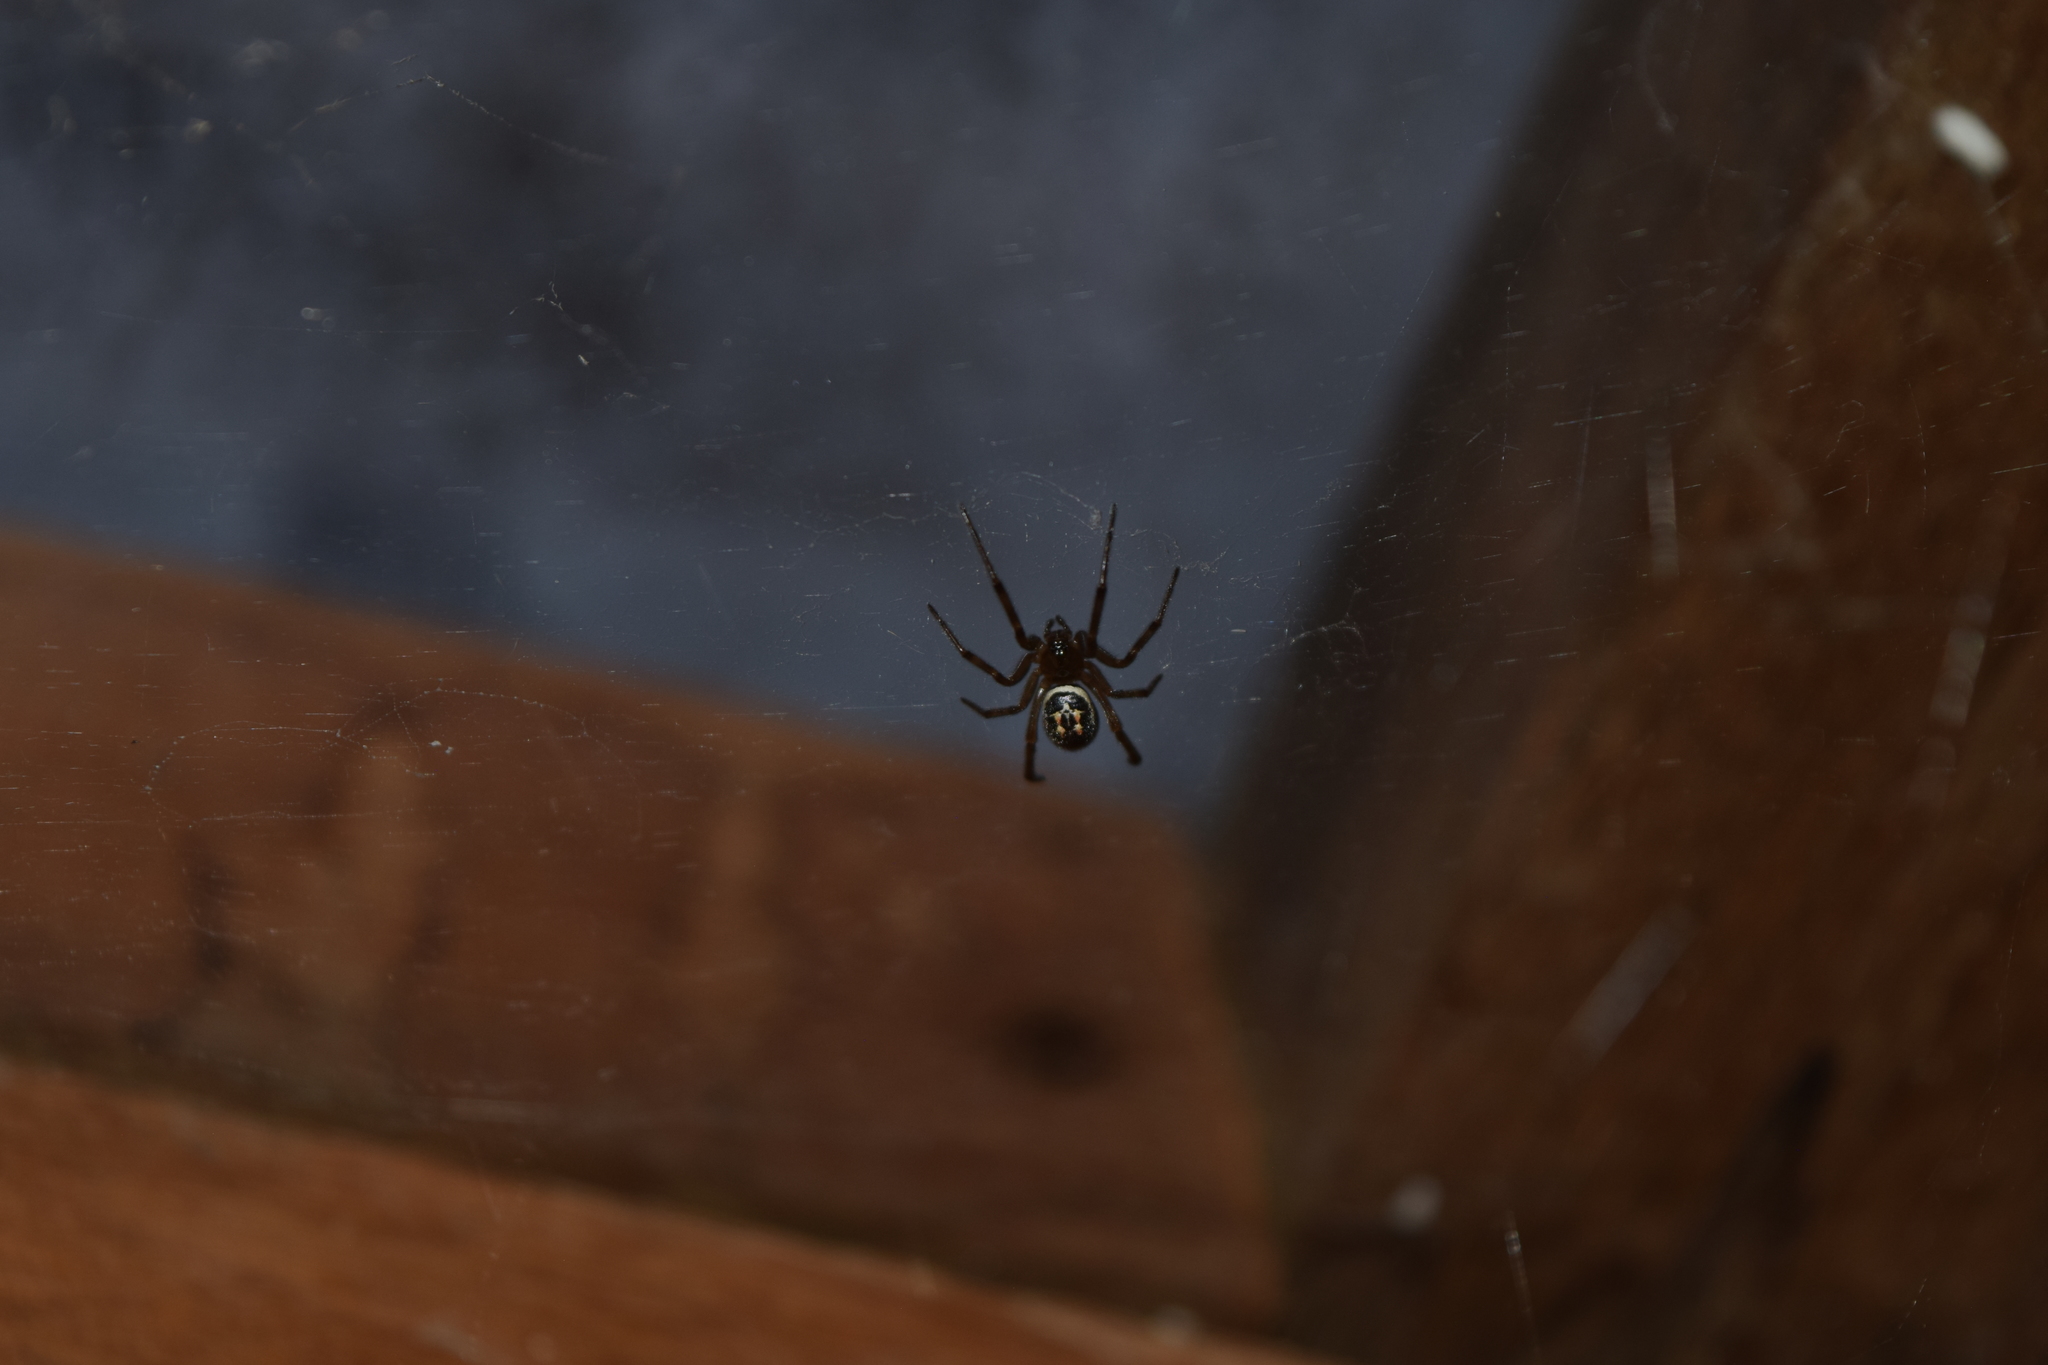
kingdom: Animalia
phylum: Arthropoda
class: Arachnida
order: Araneae
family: Theridiidae
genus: Steatoda
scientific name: Steatoda nobilis
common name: Cobweb weaver
